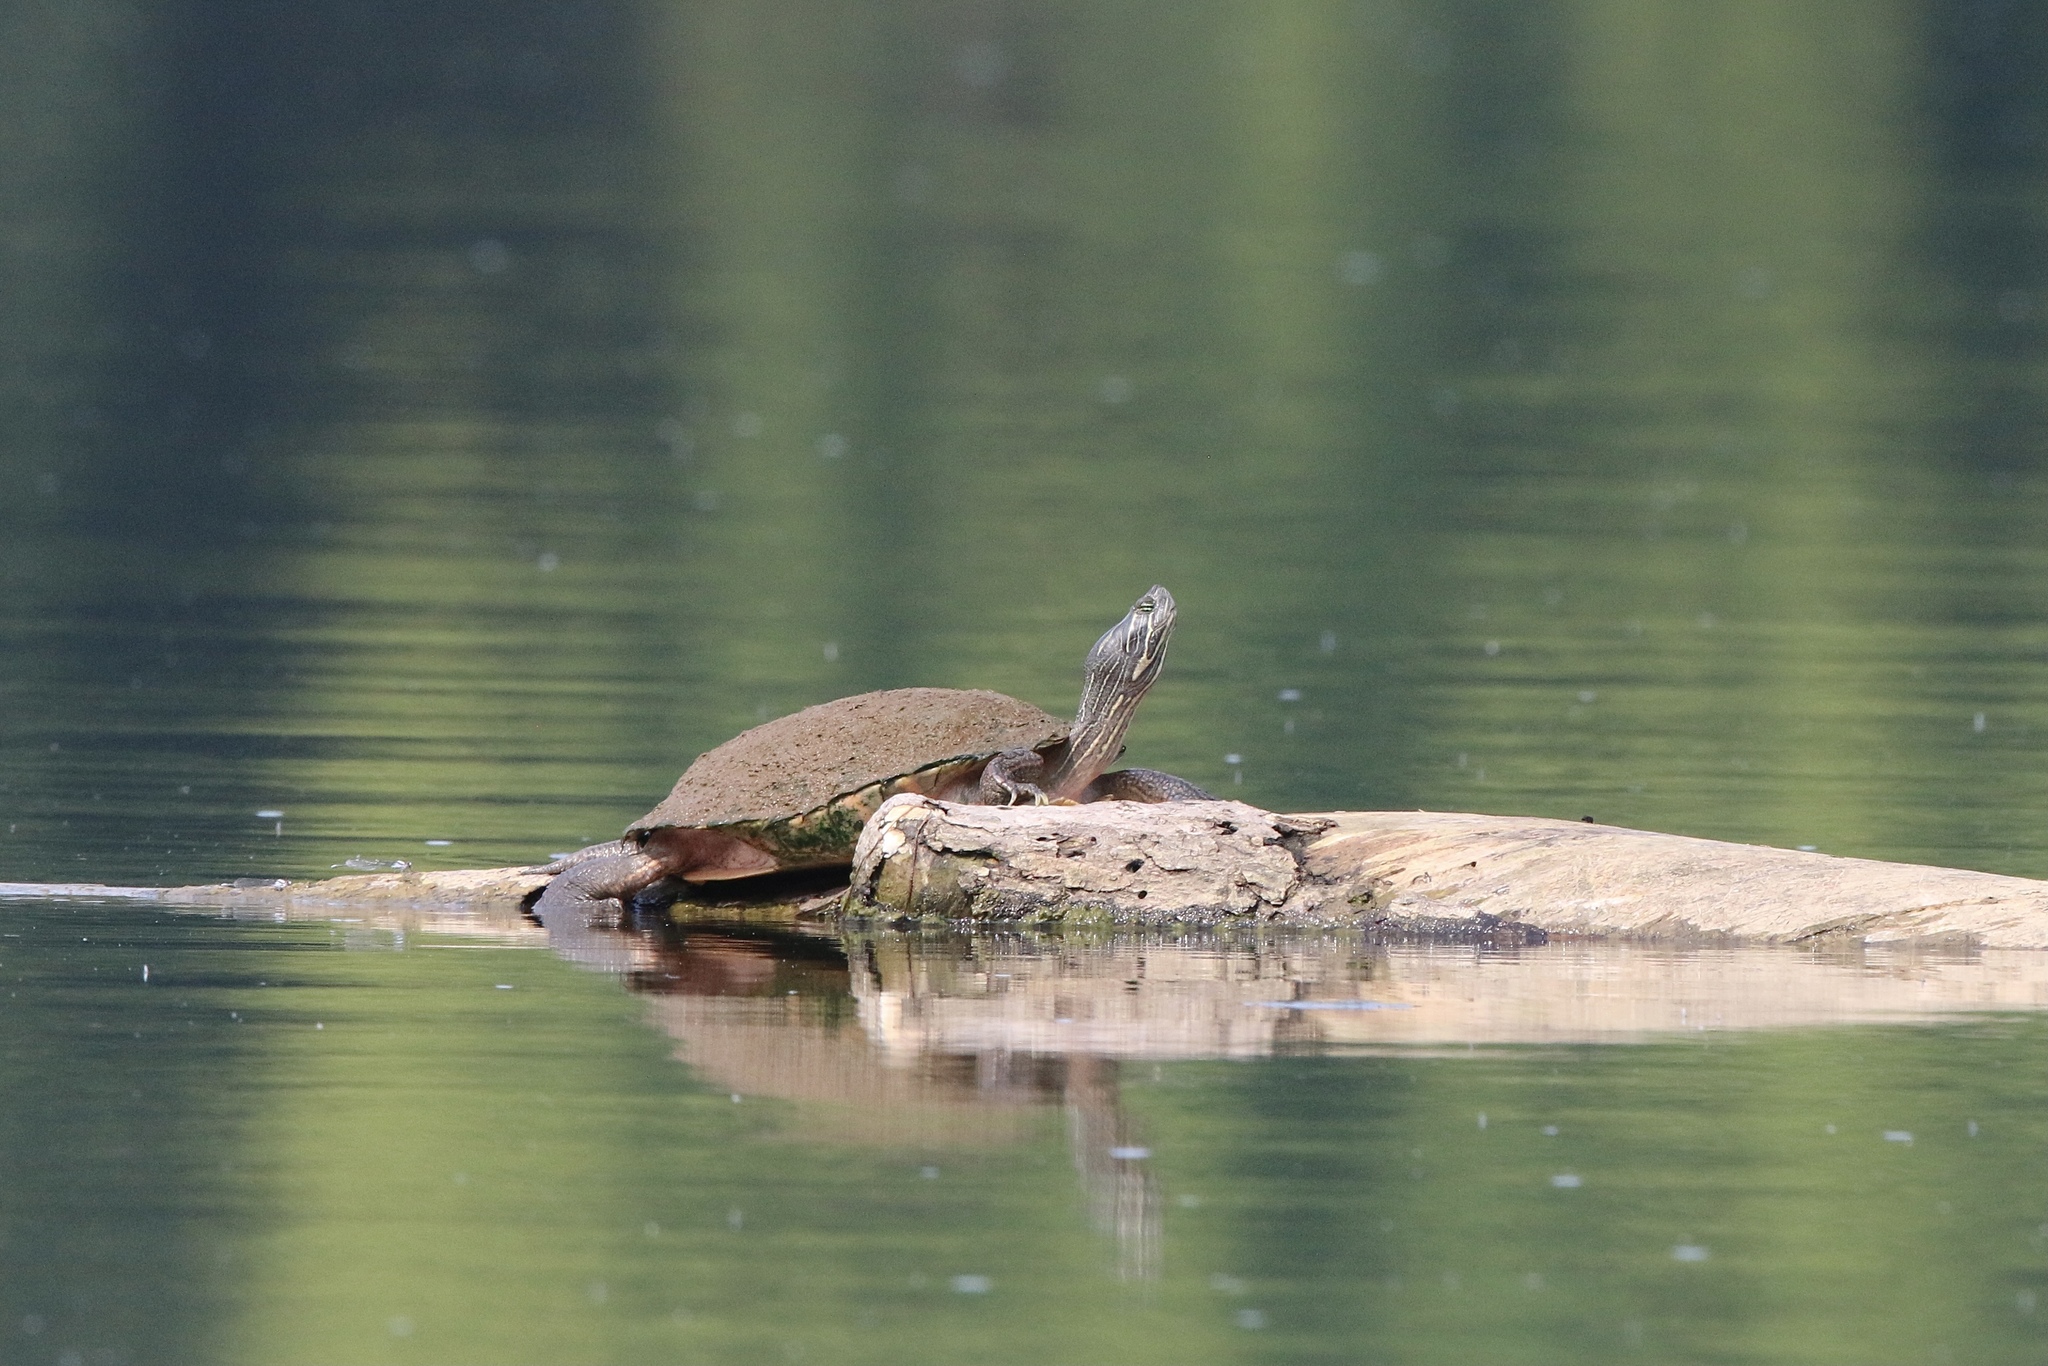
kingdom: Animalia
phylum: Chordata
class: Testudines
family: Emydidae
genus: Pseudemys
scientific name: Pseudemys rubriventris
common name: American red-bellied turtle
